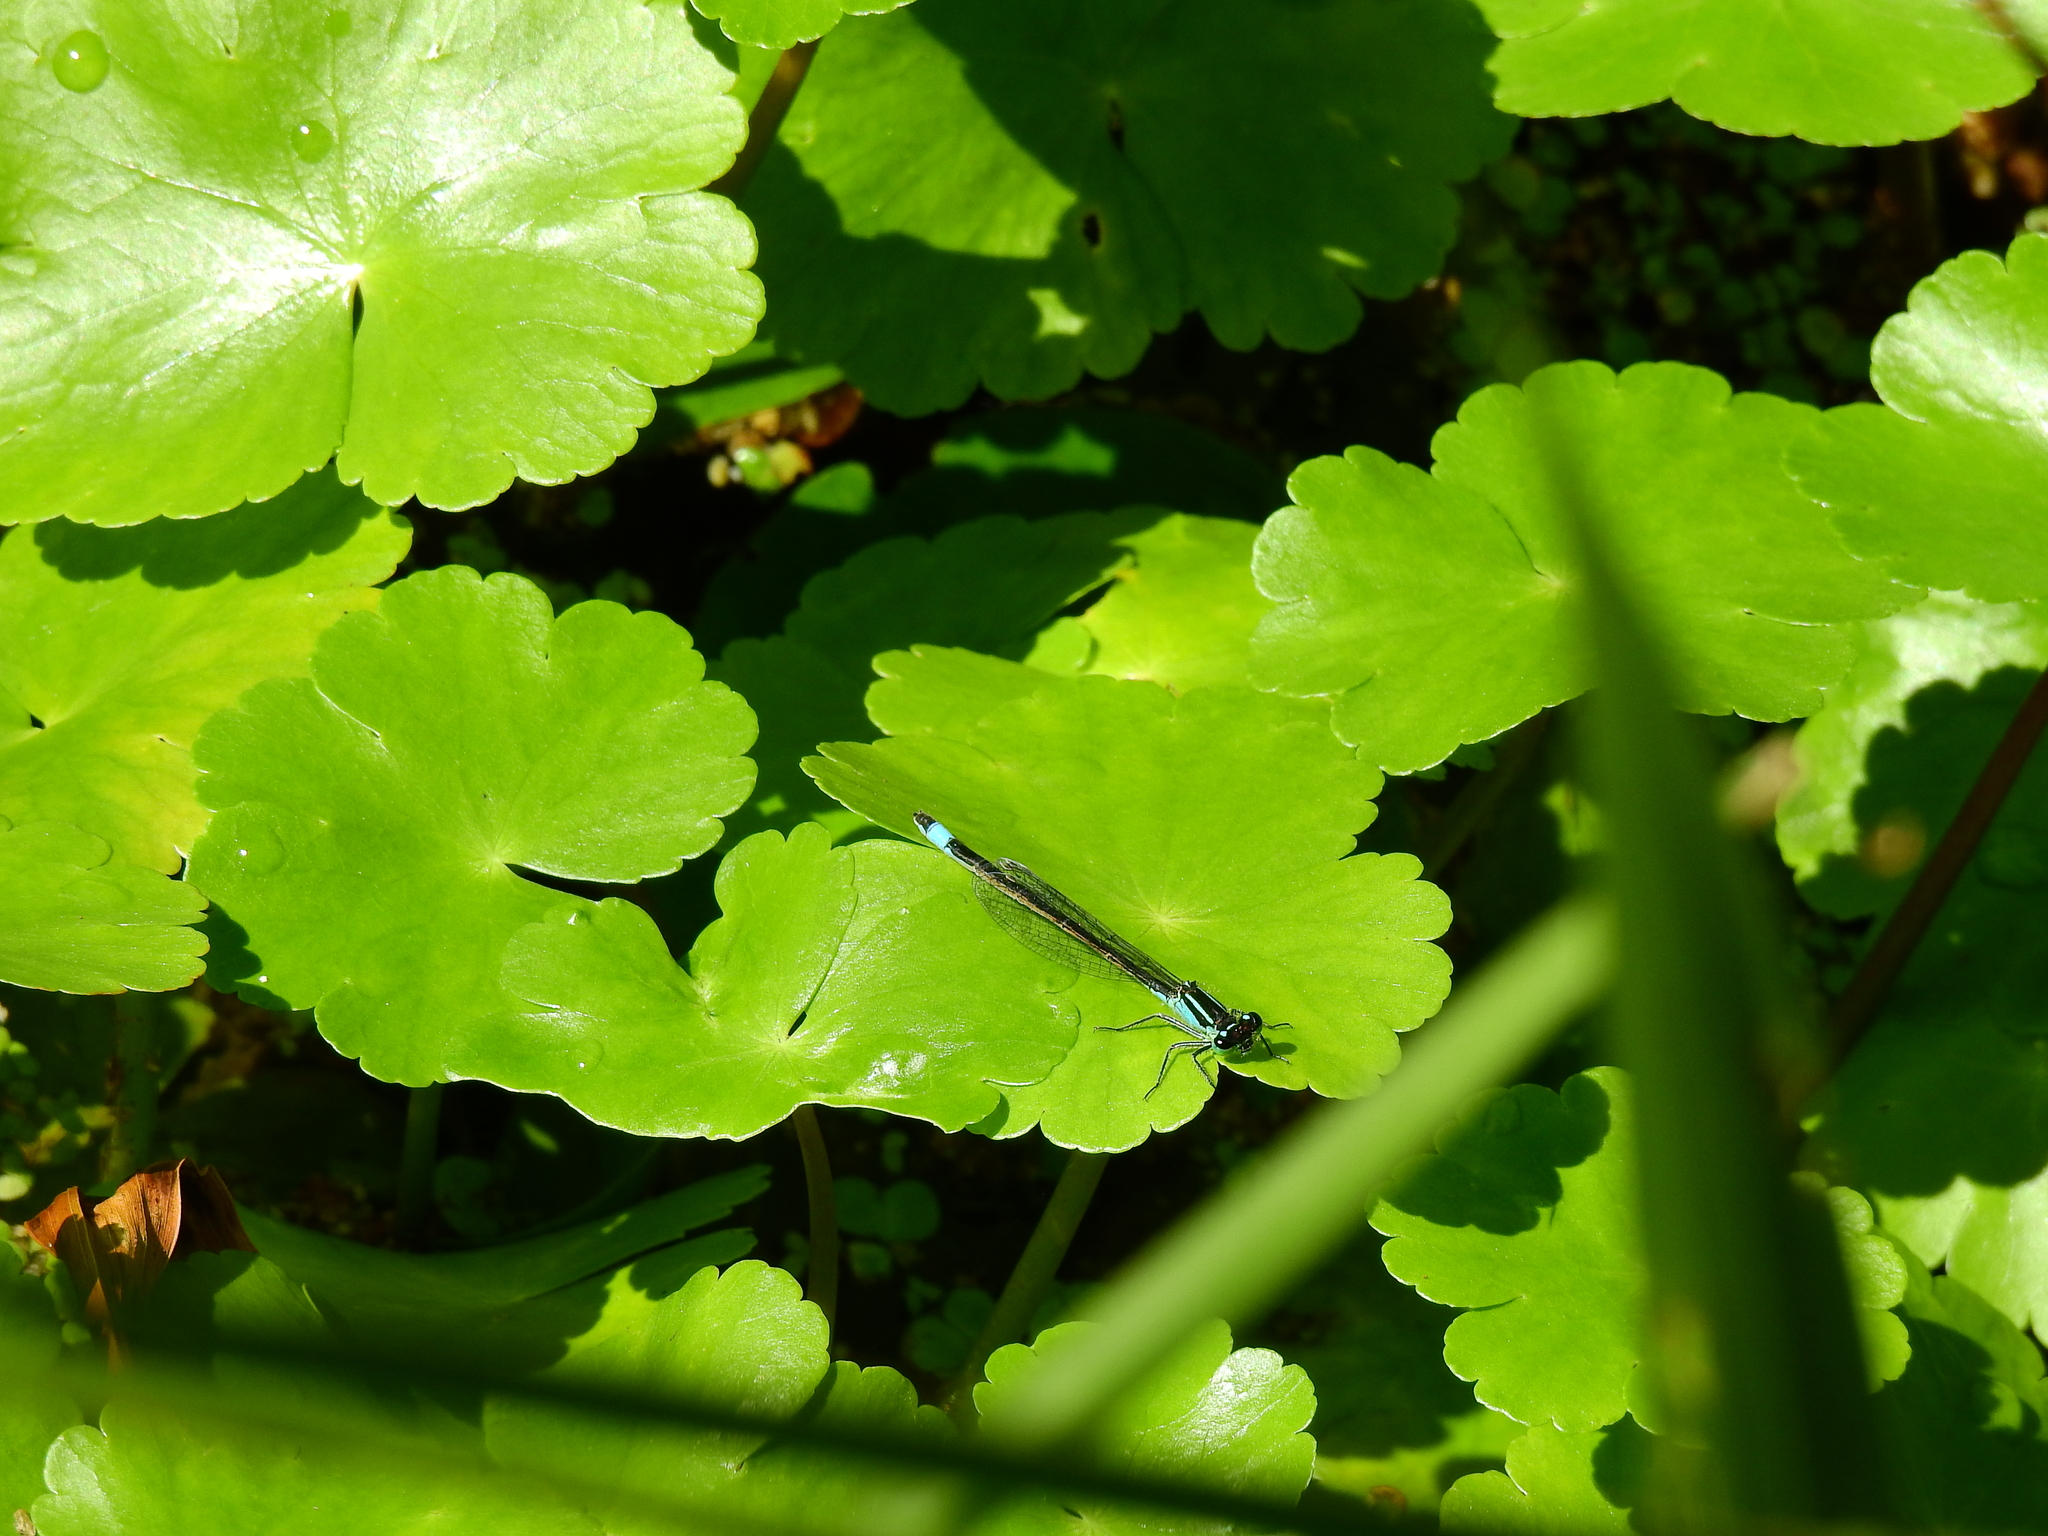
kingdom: Animalia
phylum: Arthropoda
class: Insecta
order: Odonata
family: Coenagrionidae
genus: Ischnura
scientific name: Ischnura elegans
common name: Blue-tailed damselfly
